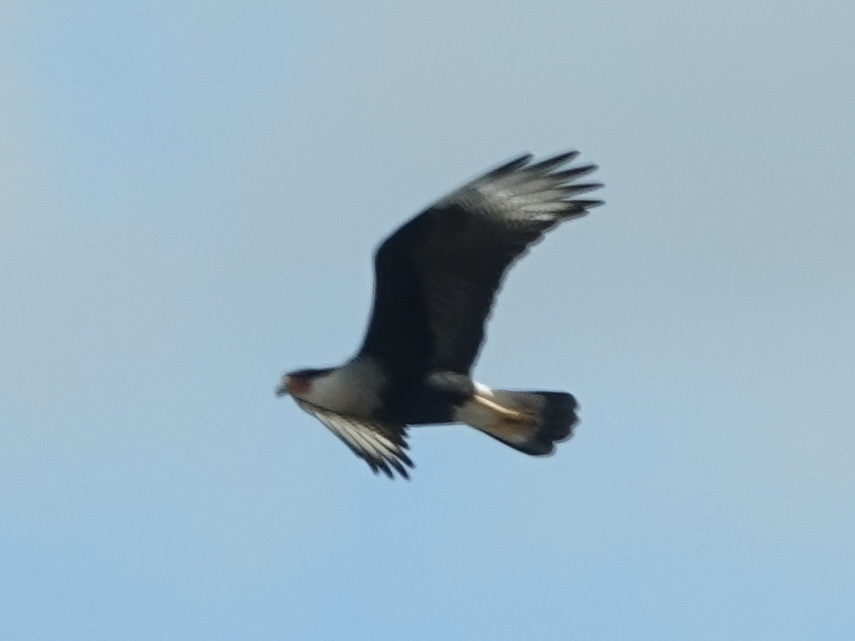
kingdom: Animalia
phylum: Chordata
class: Aves
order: Falconiformes
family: Falconidae
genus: Caracara
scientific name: Caracara plancus
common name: Southern caracara
